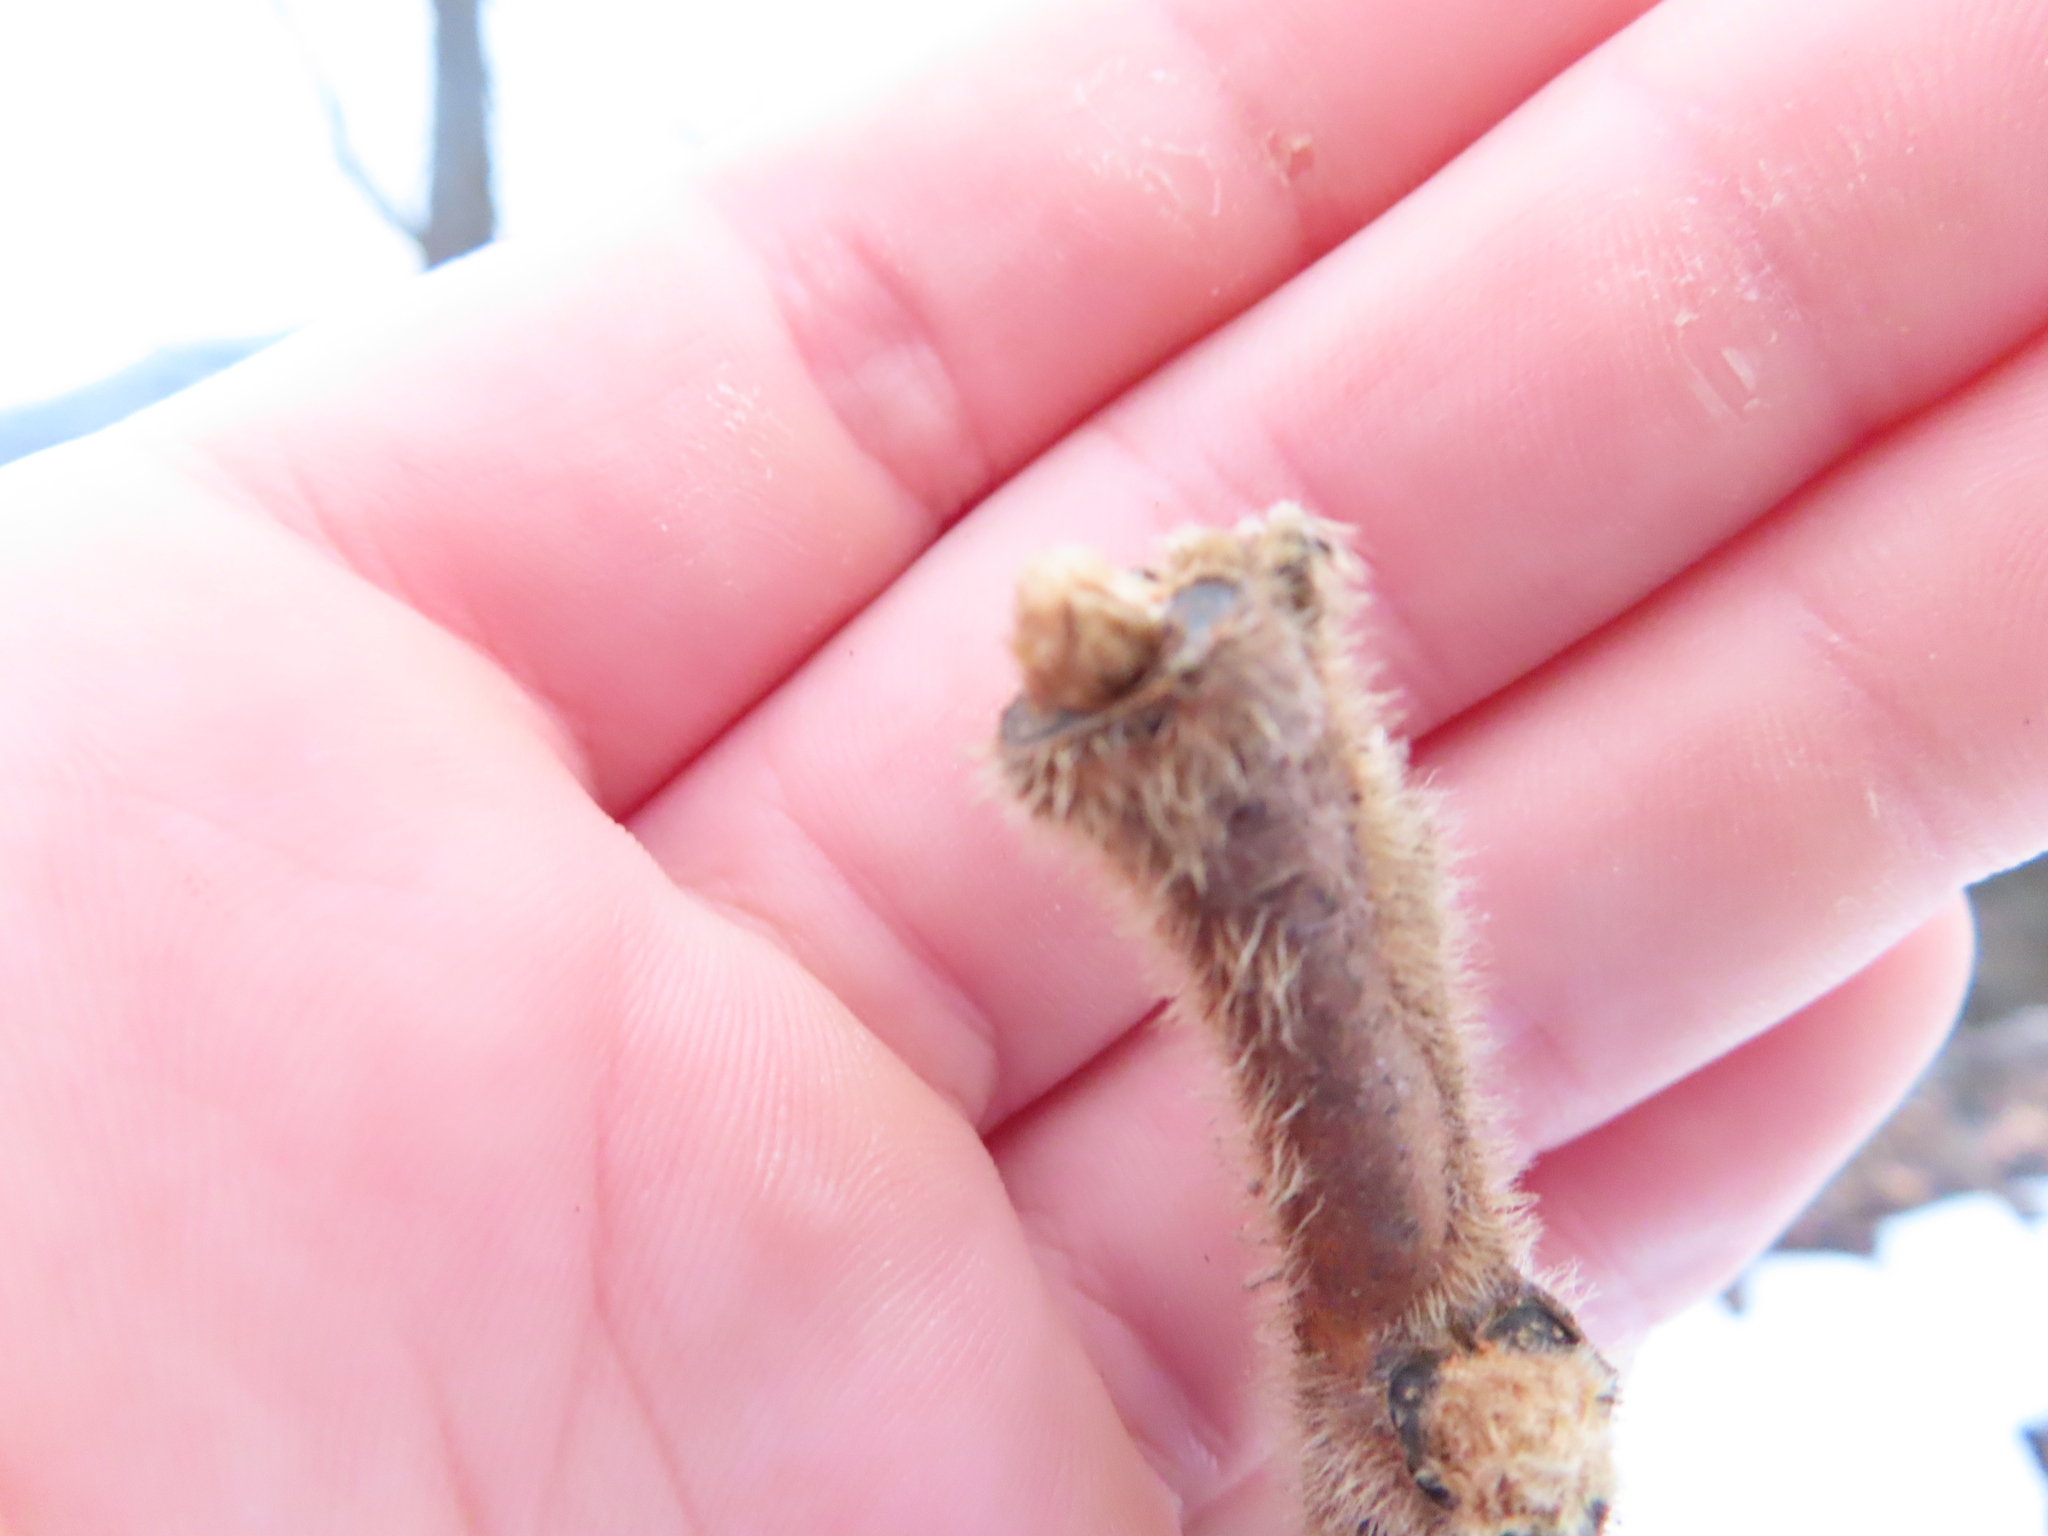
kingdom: Plantae
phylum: Tracheophyta
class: Magnoliopsida
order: Sapindales
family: Anacardiaceae
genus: Rhus
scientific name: Rhus typhina
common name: Staghorn sumac
